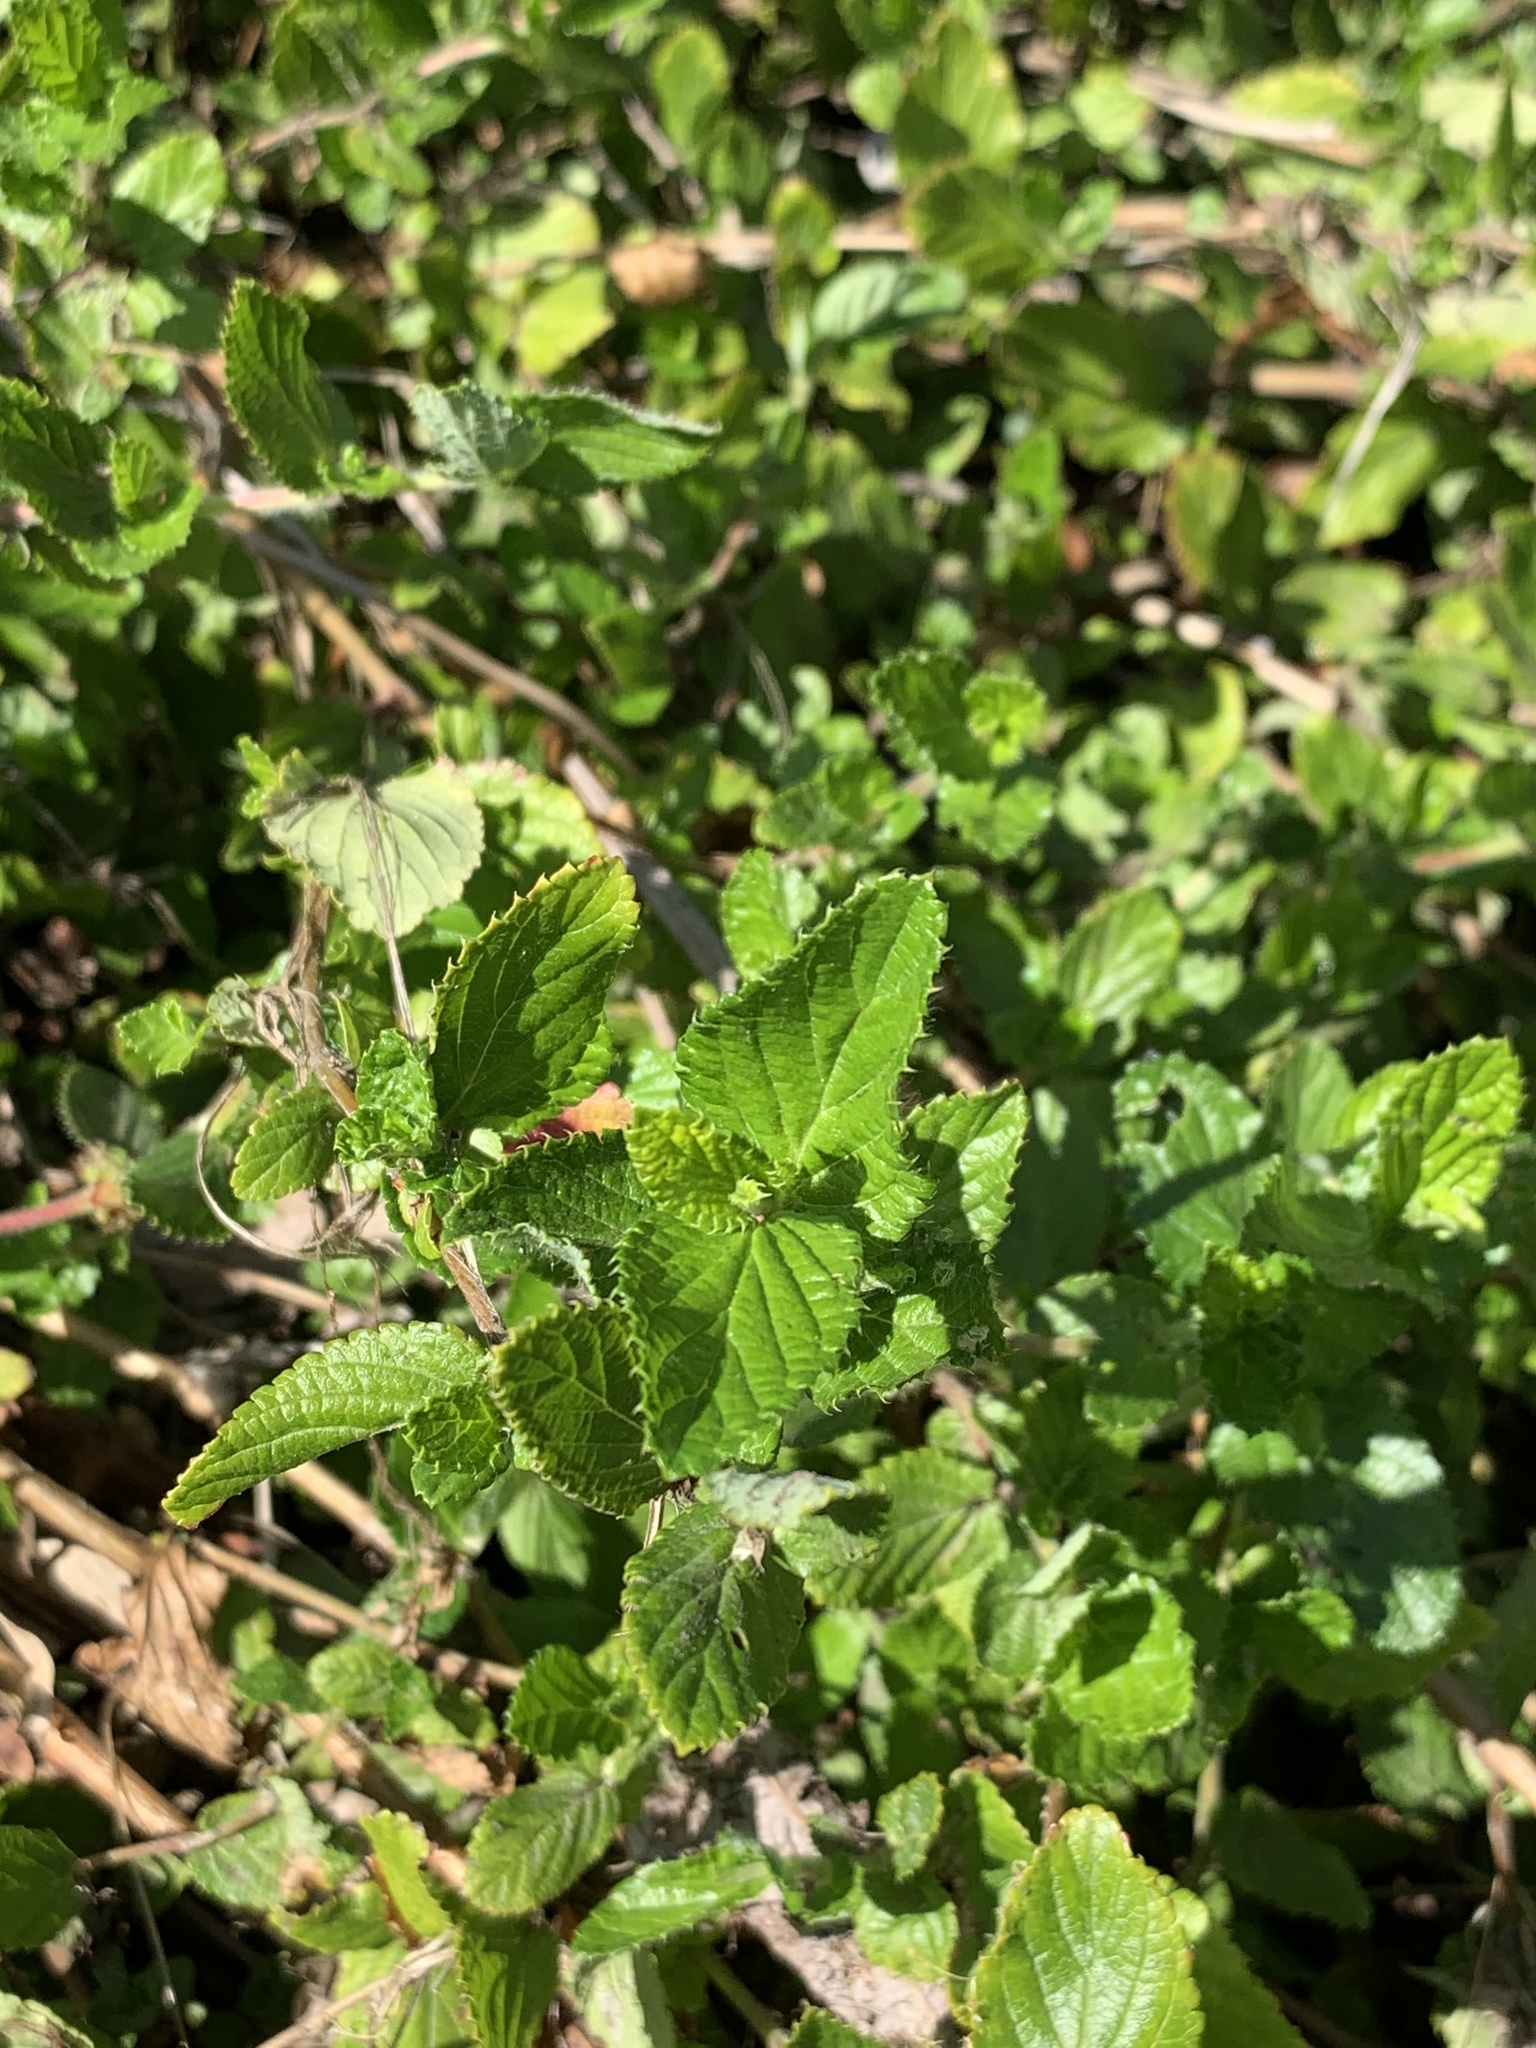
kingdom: Plantae
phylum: Tracheophyta
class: Magnoliopsida
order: Rosales
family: Rosaceae
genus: Cliffortia
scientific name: Cliffortia odorata
